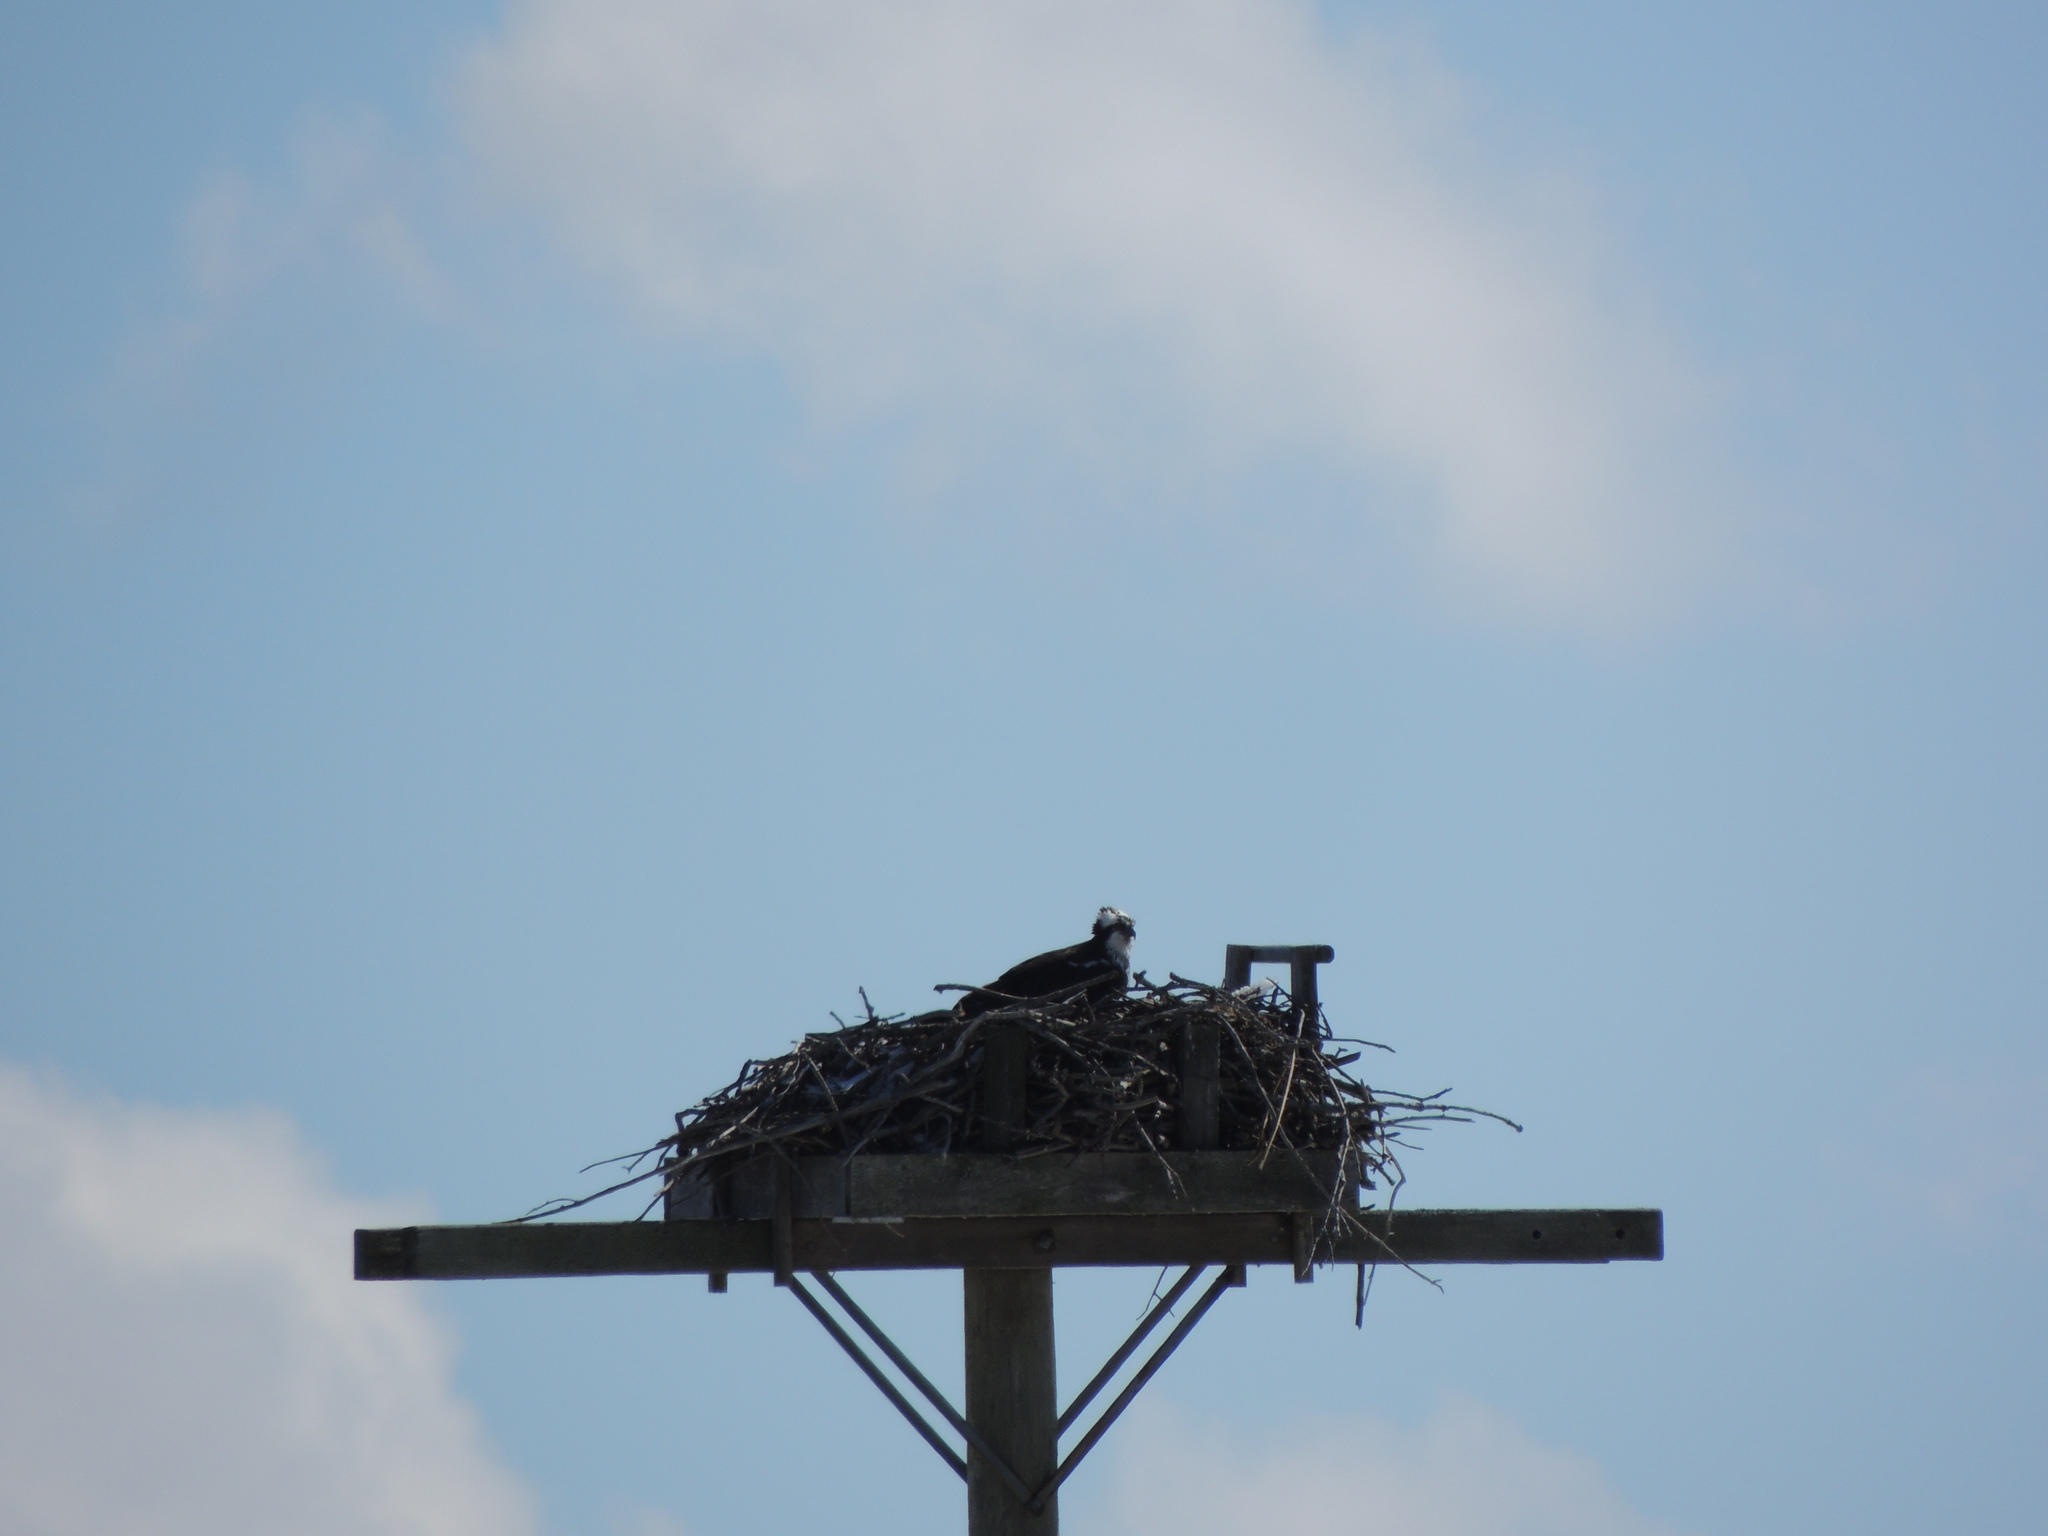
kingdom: Animalia
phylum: Chordata
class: Aves
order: Accipitriformes
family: Pandionidae
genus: Pandion
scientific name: Pandion haliaetus
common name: Osprey
